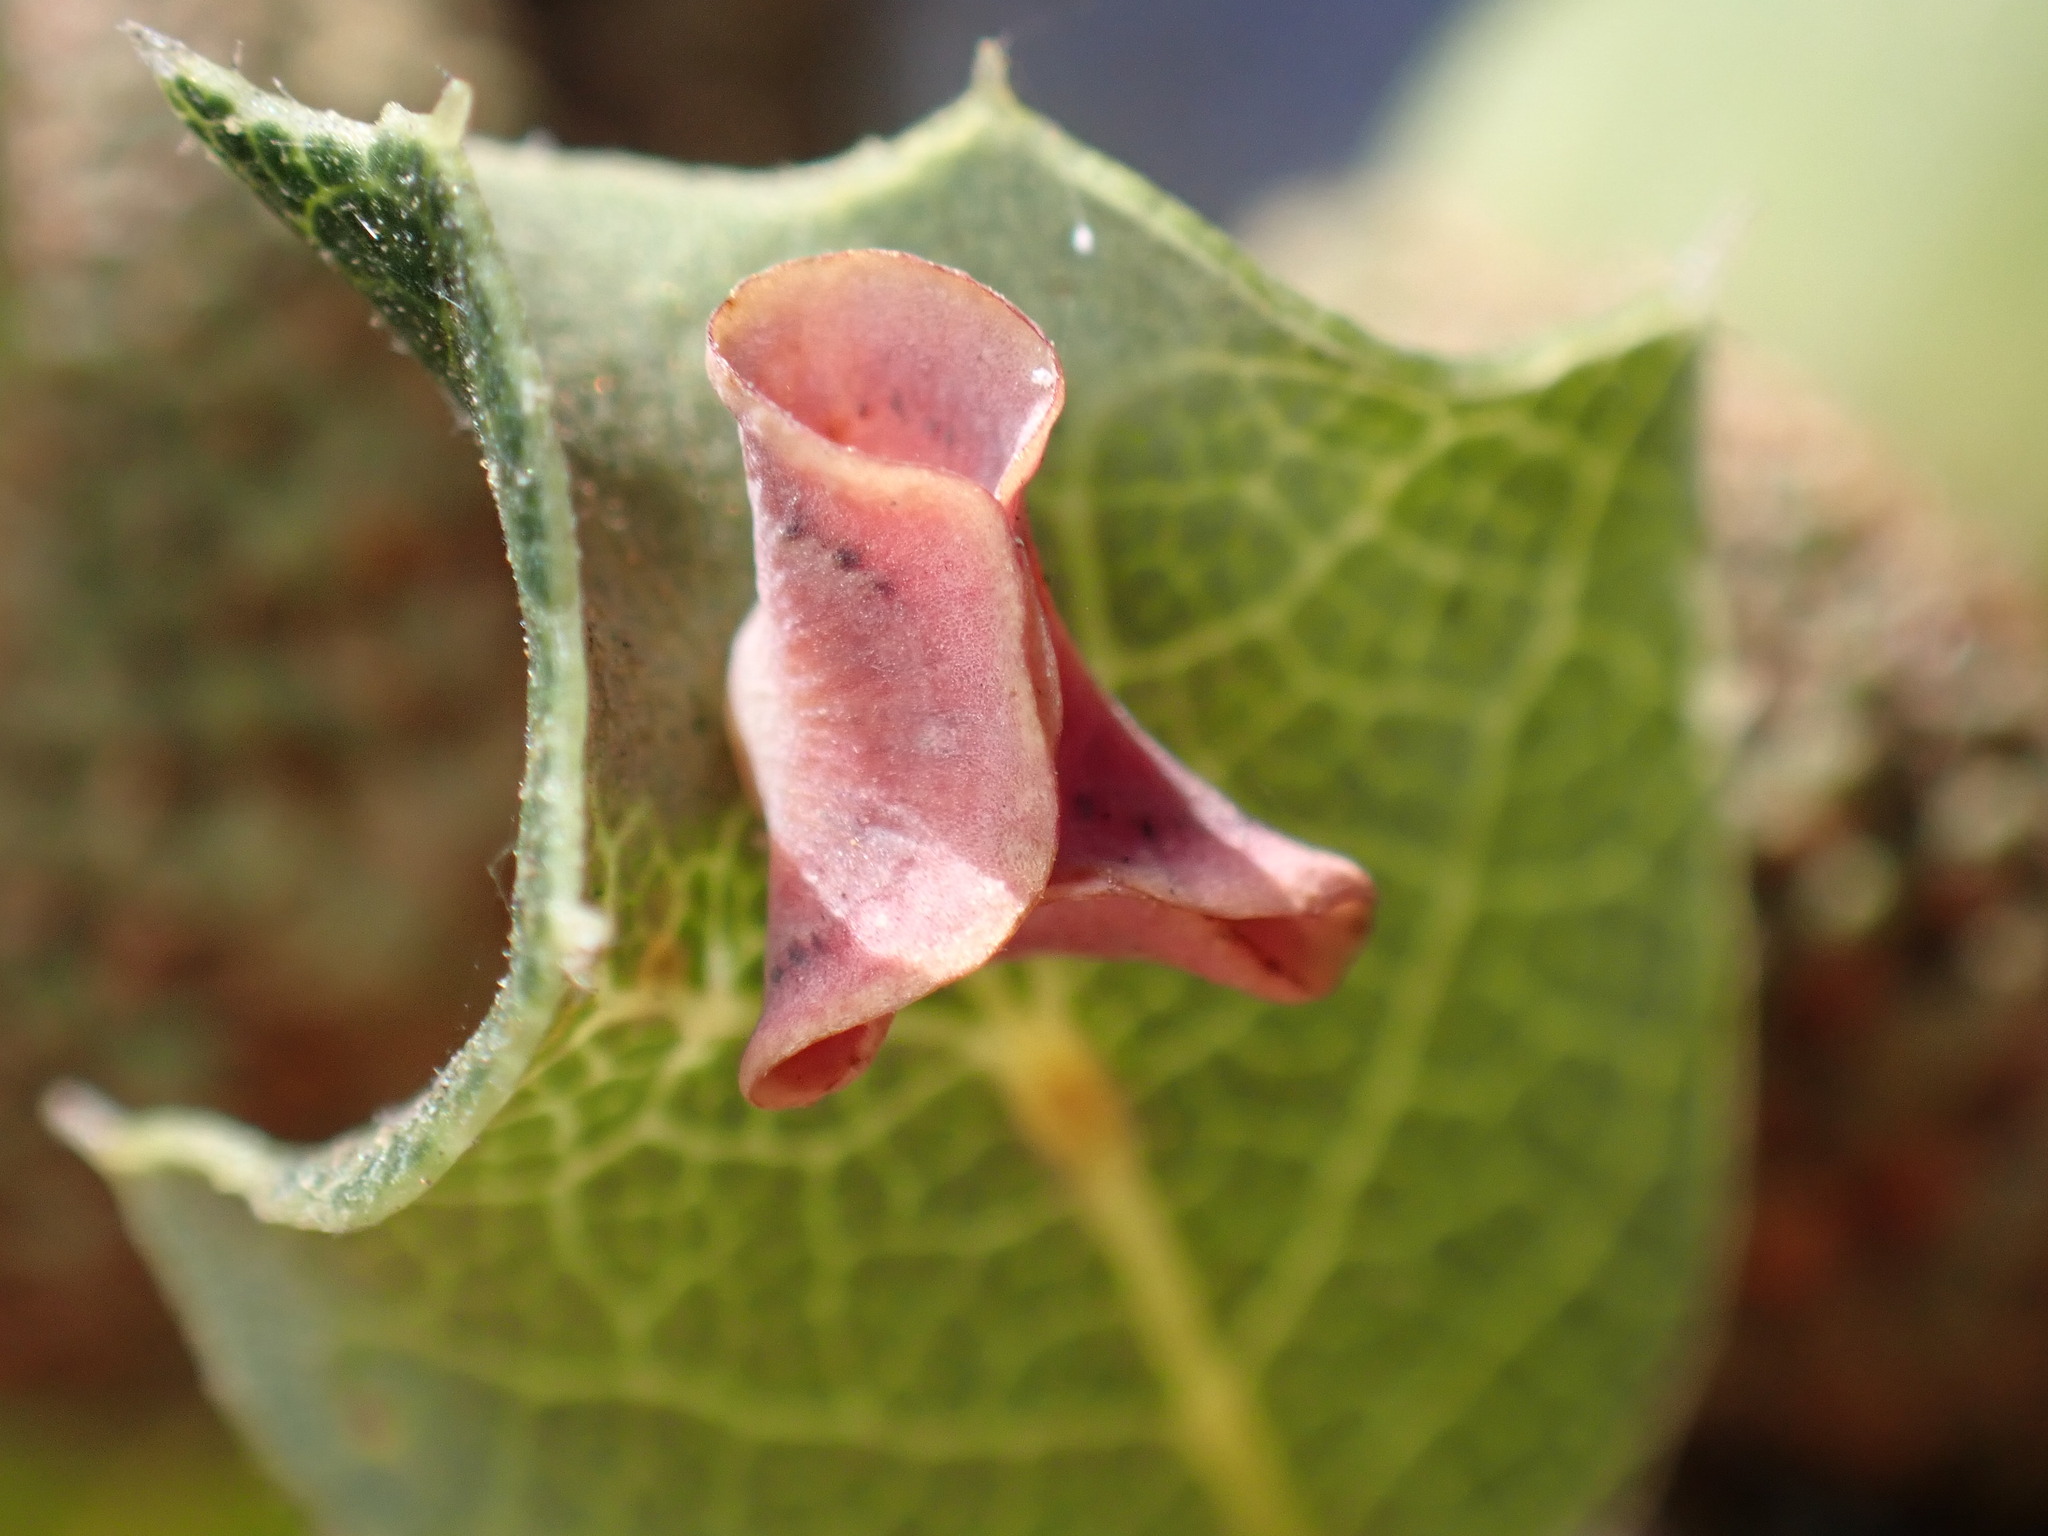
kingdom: Animalia
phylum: Arthropoda
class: Insecta
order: Hymenoptera
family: Cynipidae
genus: Andricus
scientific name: Andricus
